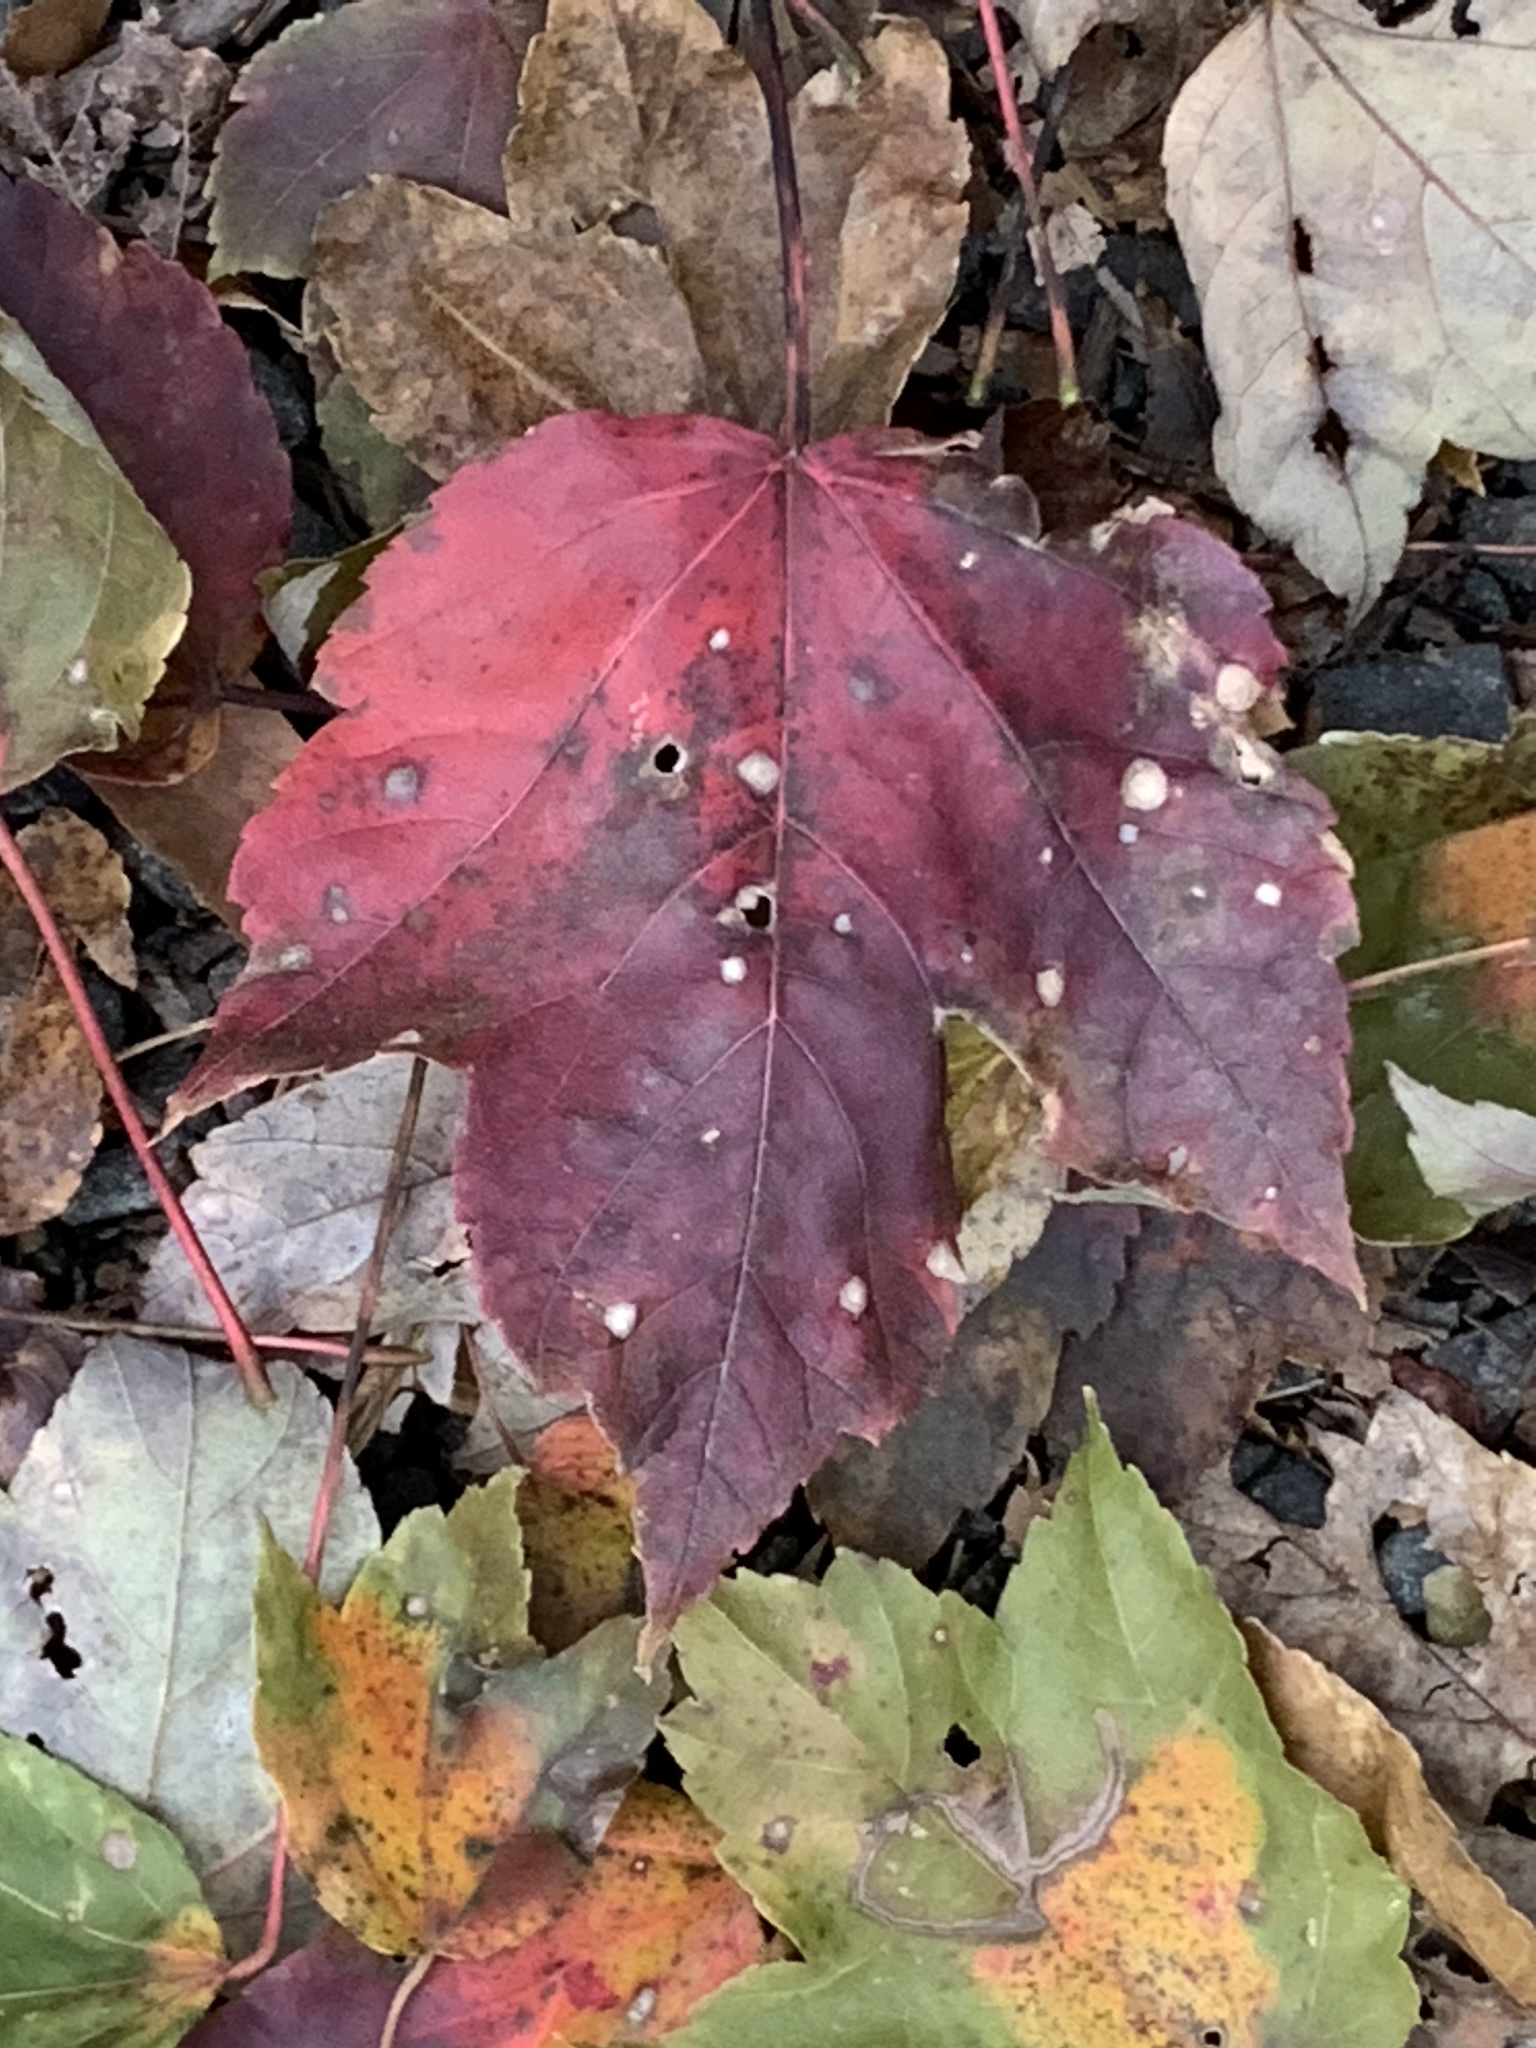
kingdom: Plantae
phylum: Tracheophyta
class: Magnoliopsida
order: Sapindales
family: Sapindaceae
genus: Acer
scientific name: Acer rubrum
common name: Red maple
